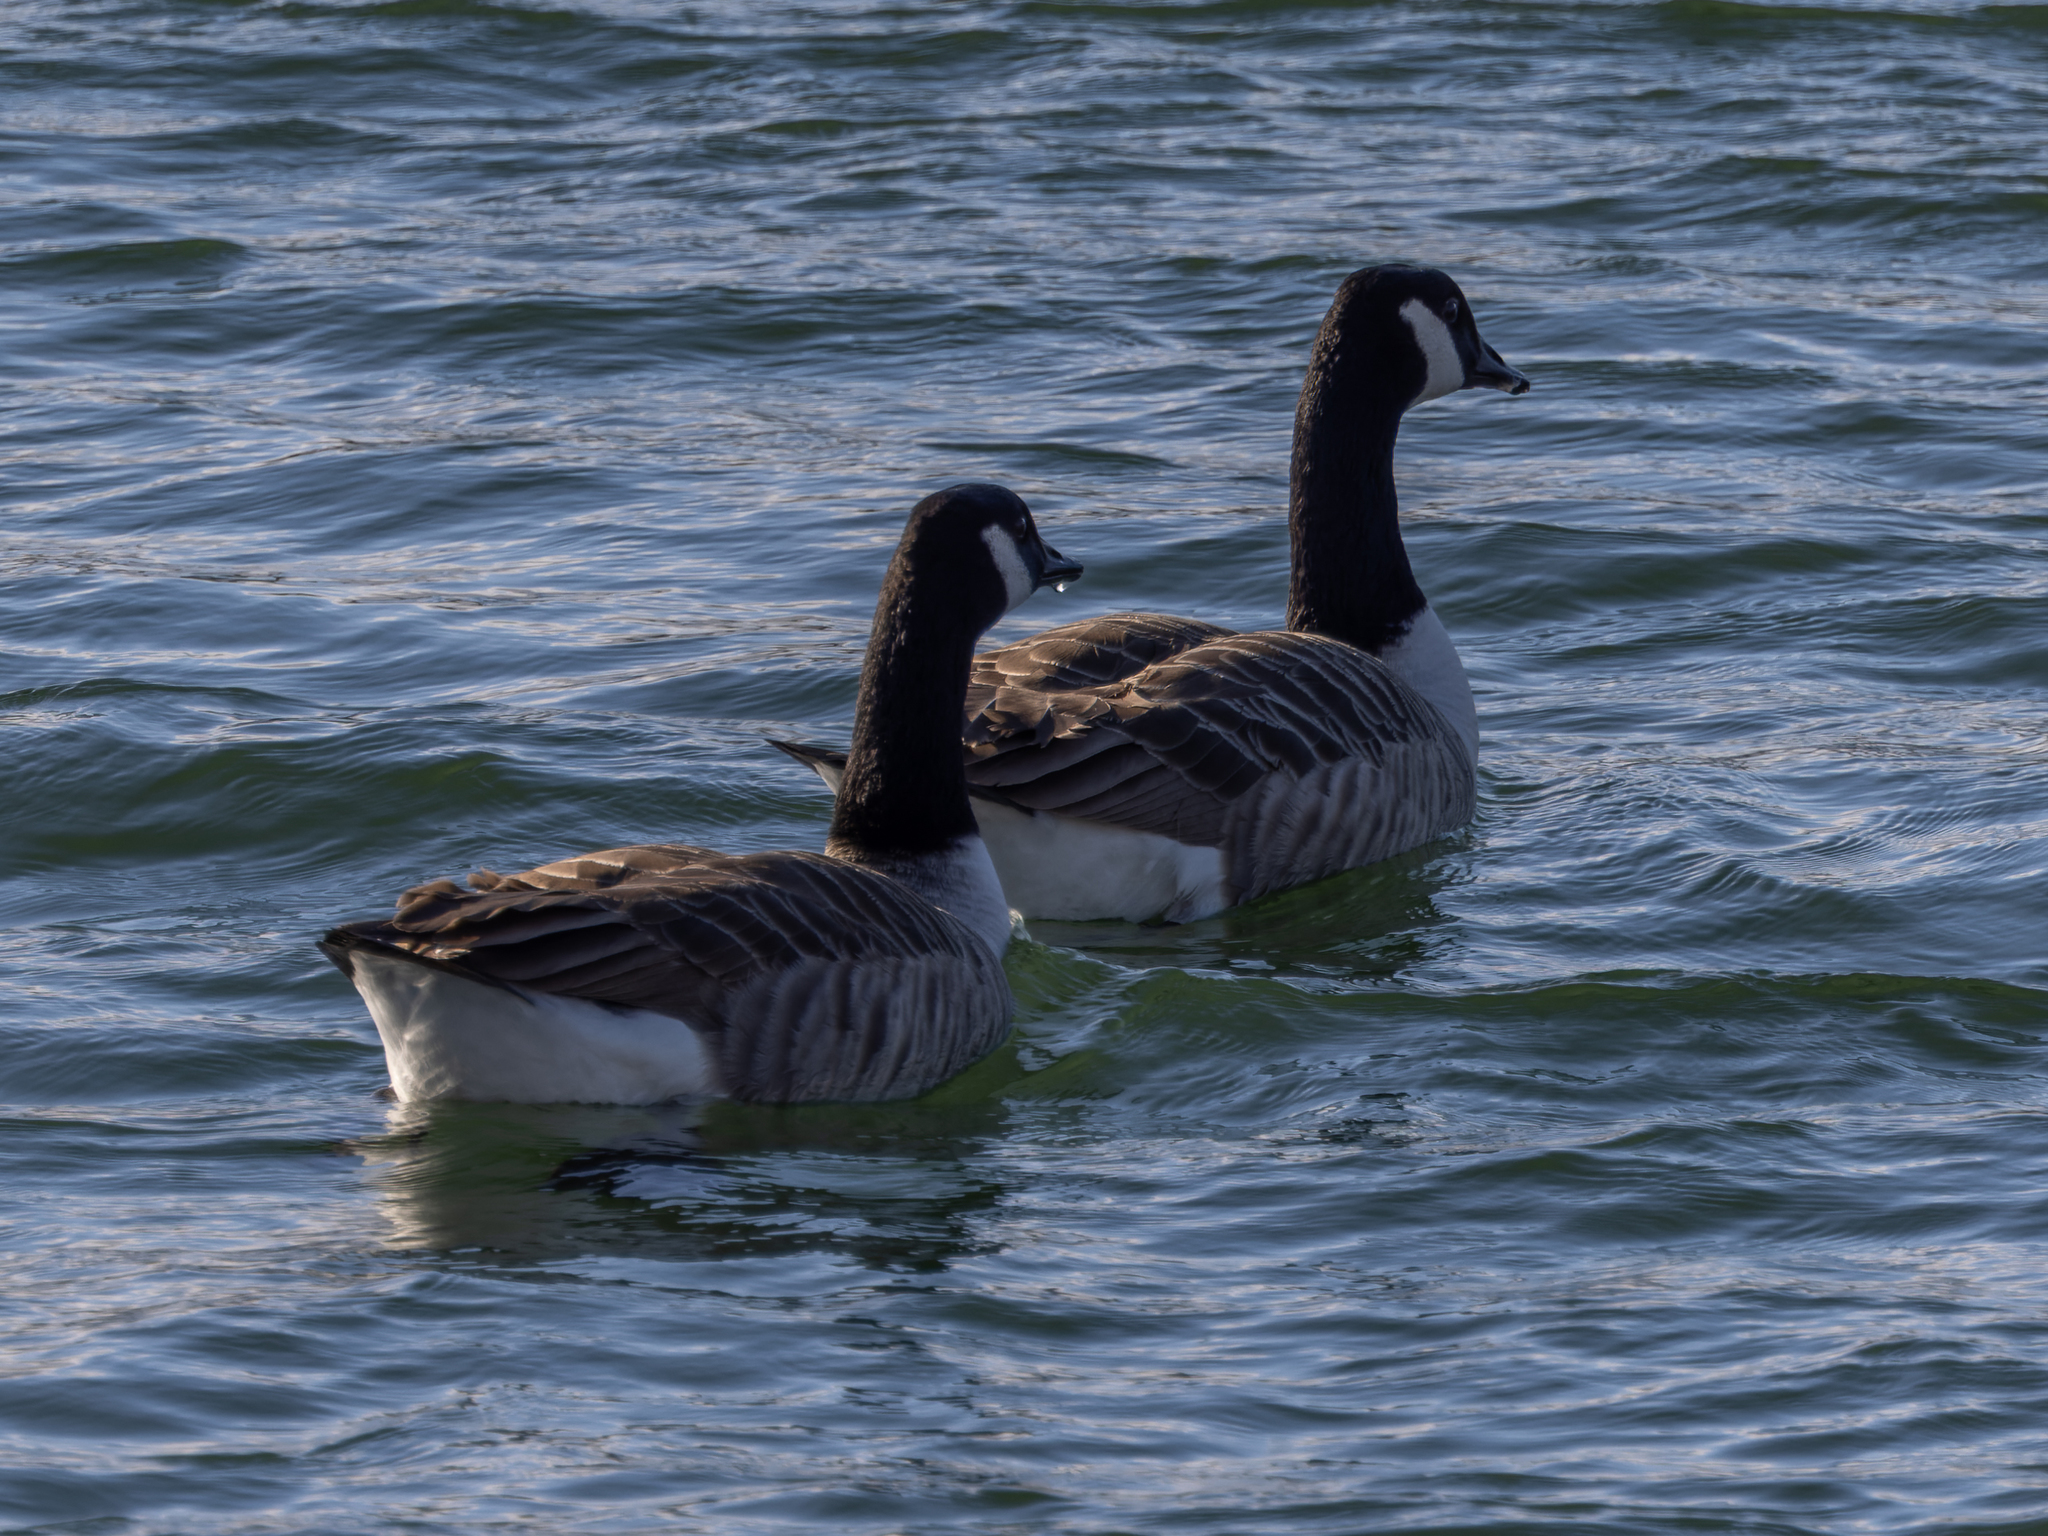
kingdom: Animalia
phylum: Chordata
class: Aves
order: Anseriformes
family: Anatidae
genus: Branta
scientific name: Branta canadensis
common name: Canada goose
